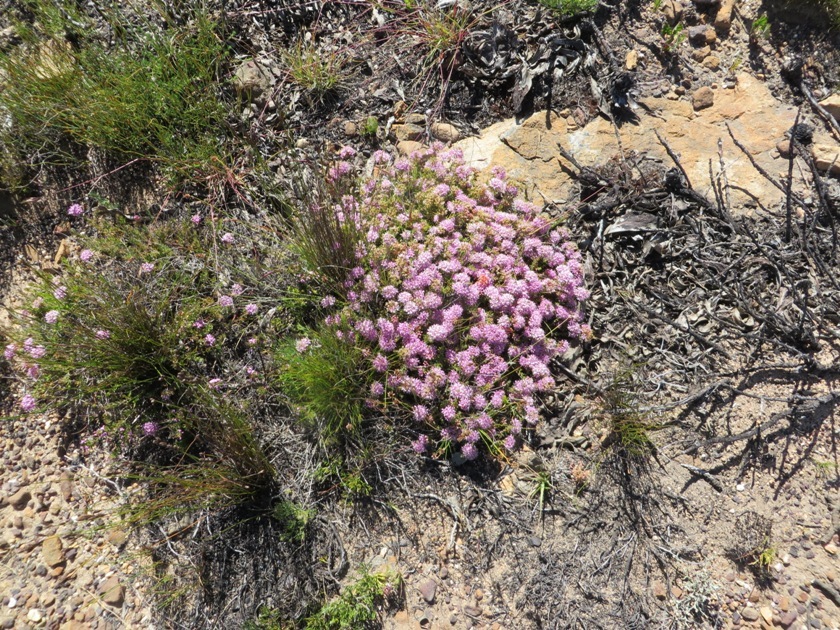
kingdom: Plantae
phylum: Tracheophyta
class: Magnoliopsida
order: Sapindales
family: Rutaceae
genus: Agathosma
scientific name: Agathosma marlothii
